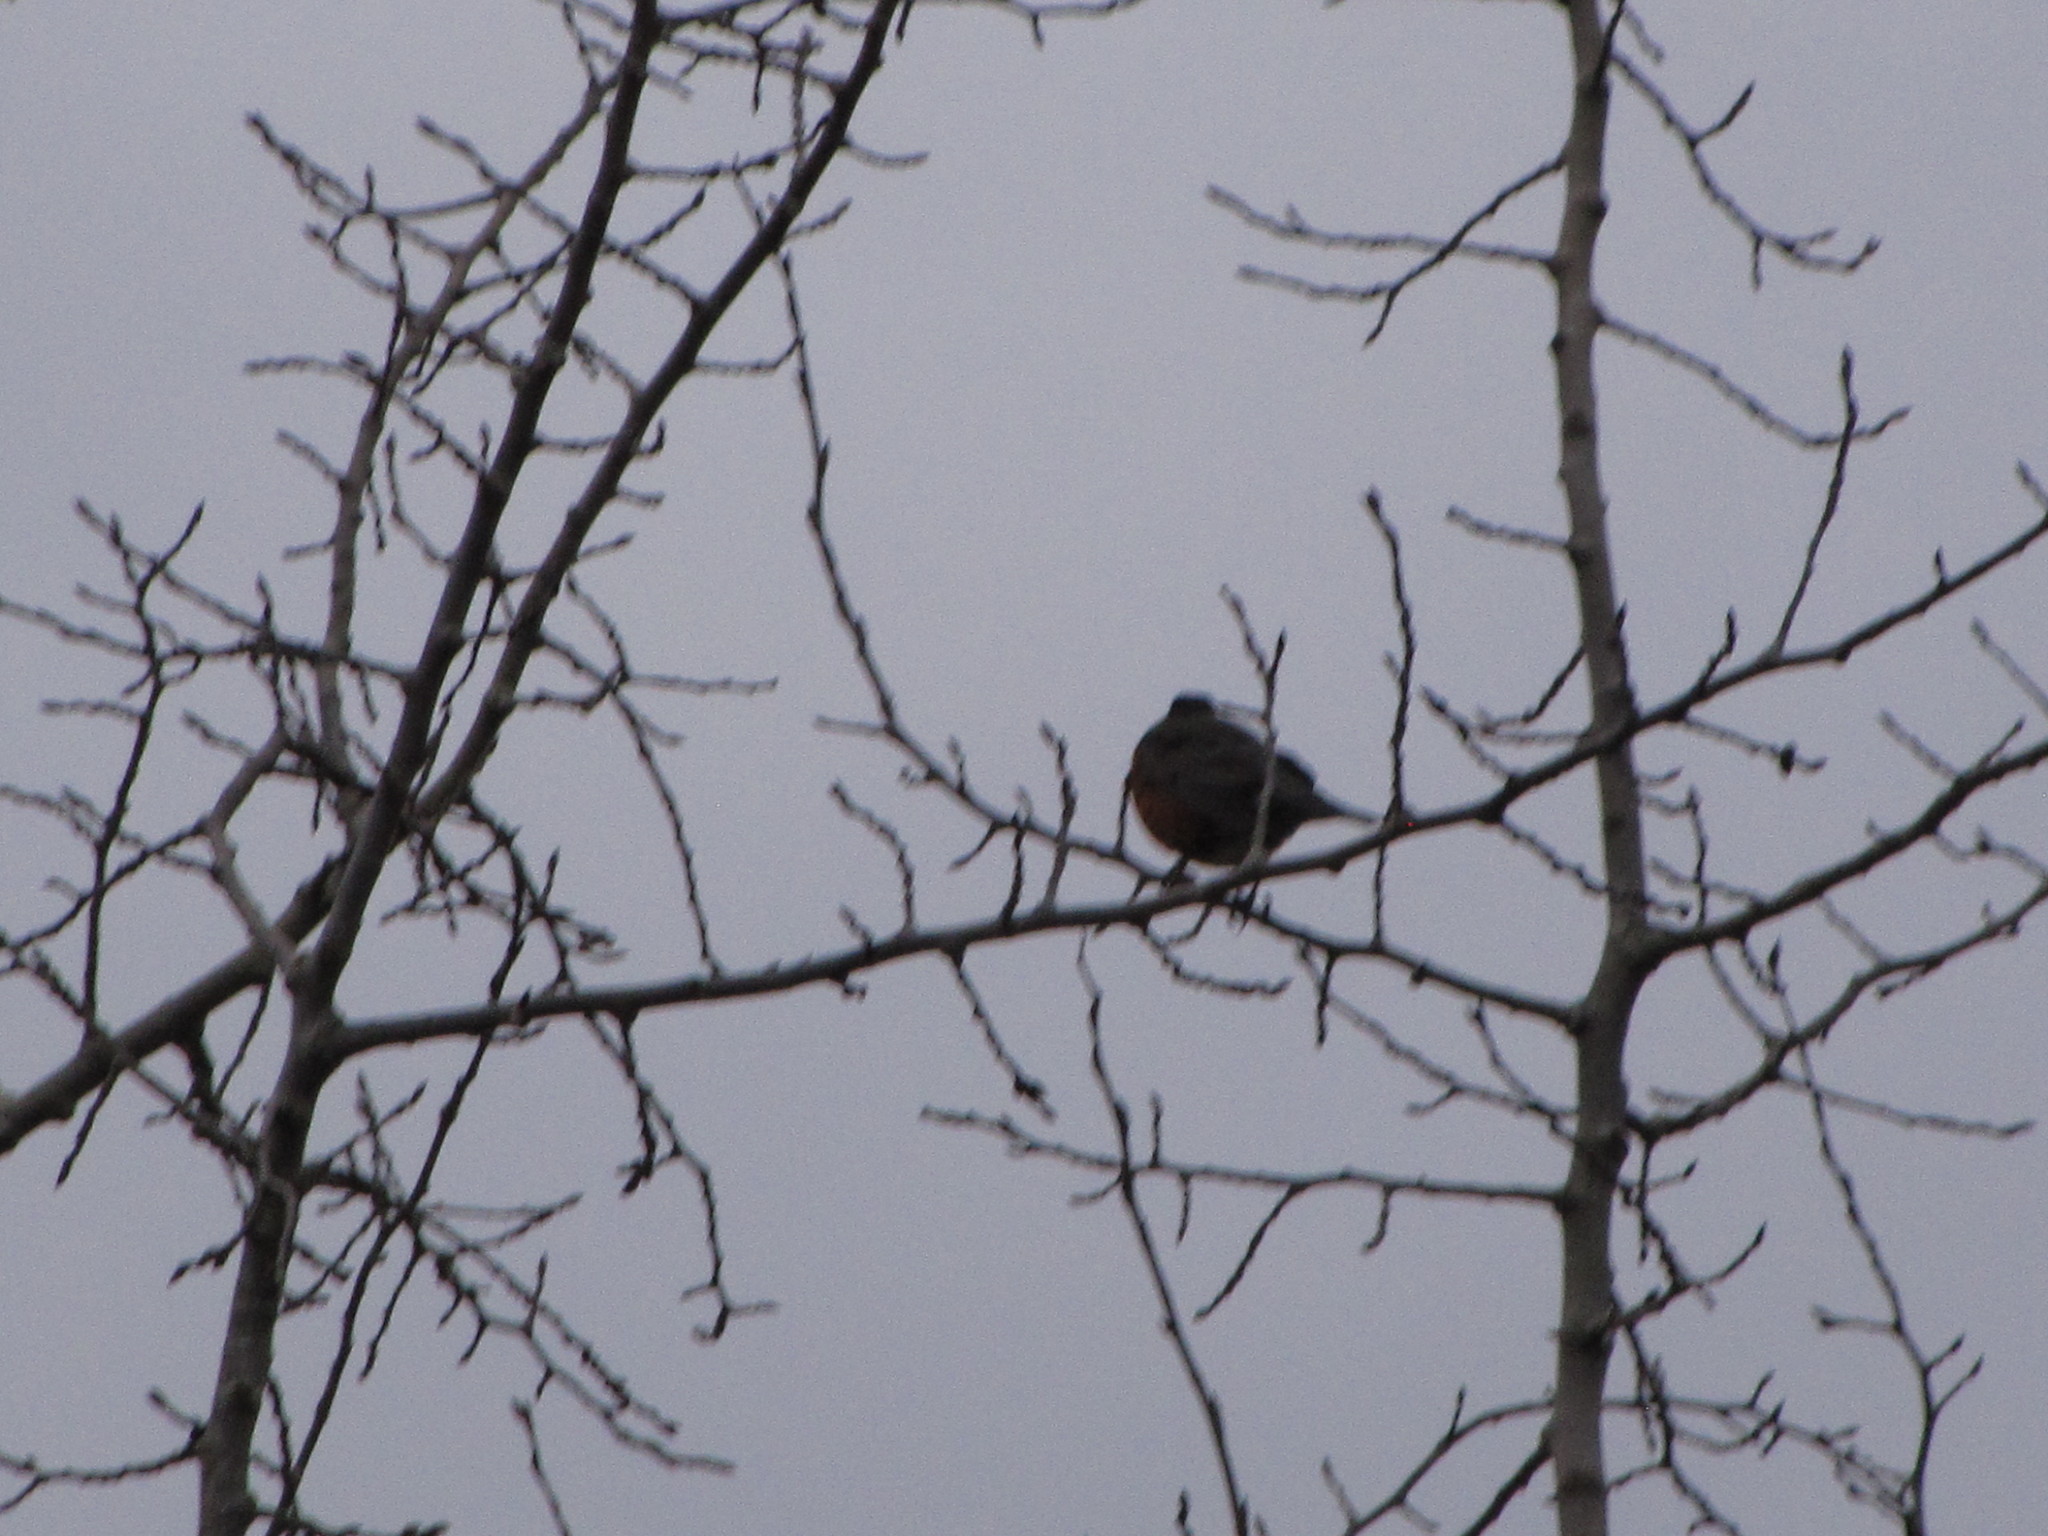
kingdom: Animalia
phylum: Chordata
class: Aves
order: Passeriformes
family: Turdidae
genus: Turdus
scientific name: Turdus migratorius
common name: American robin
